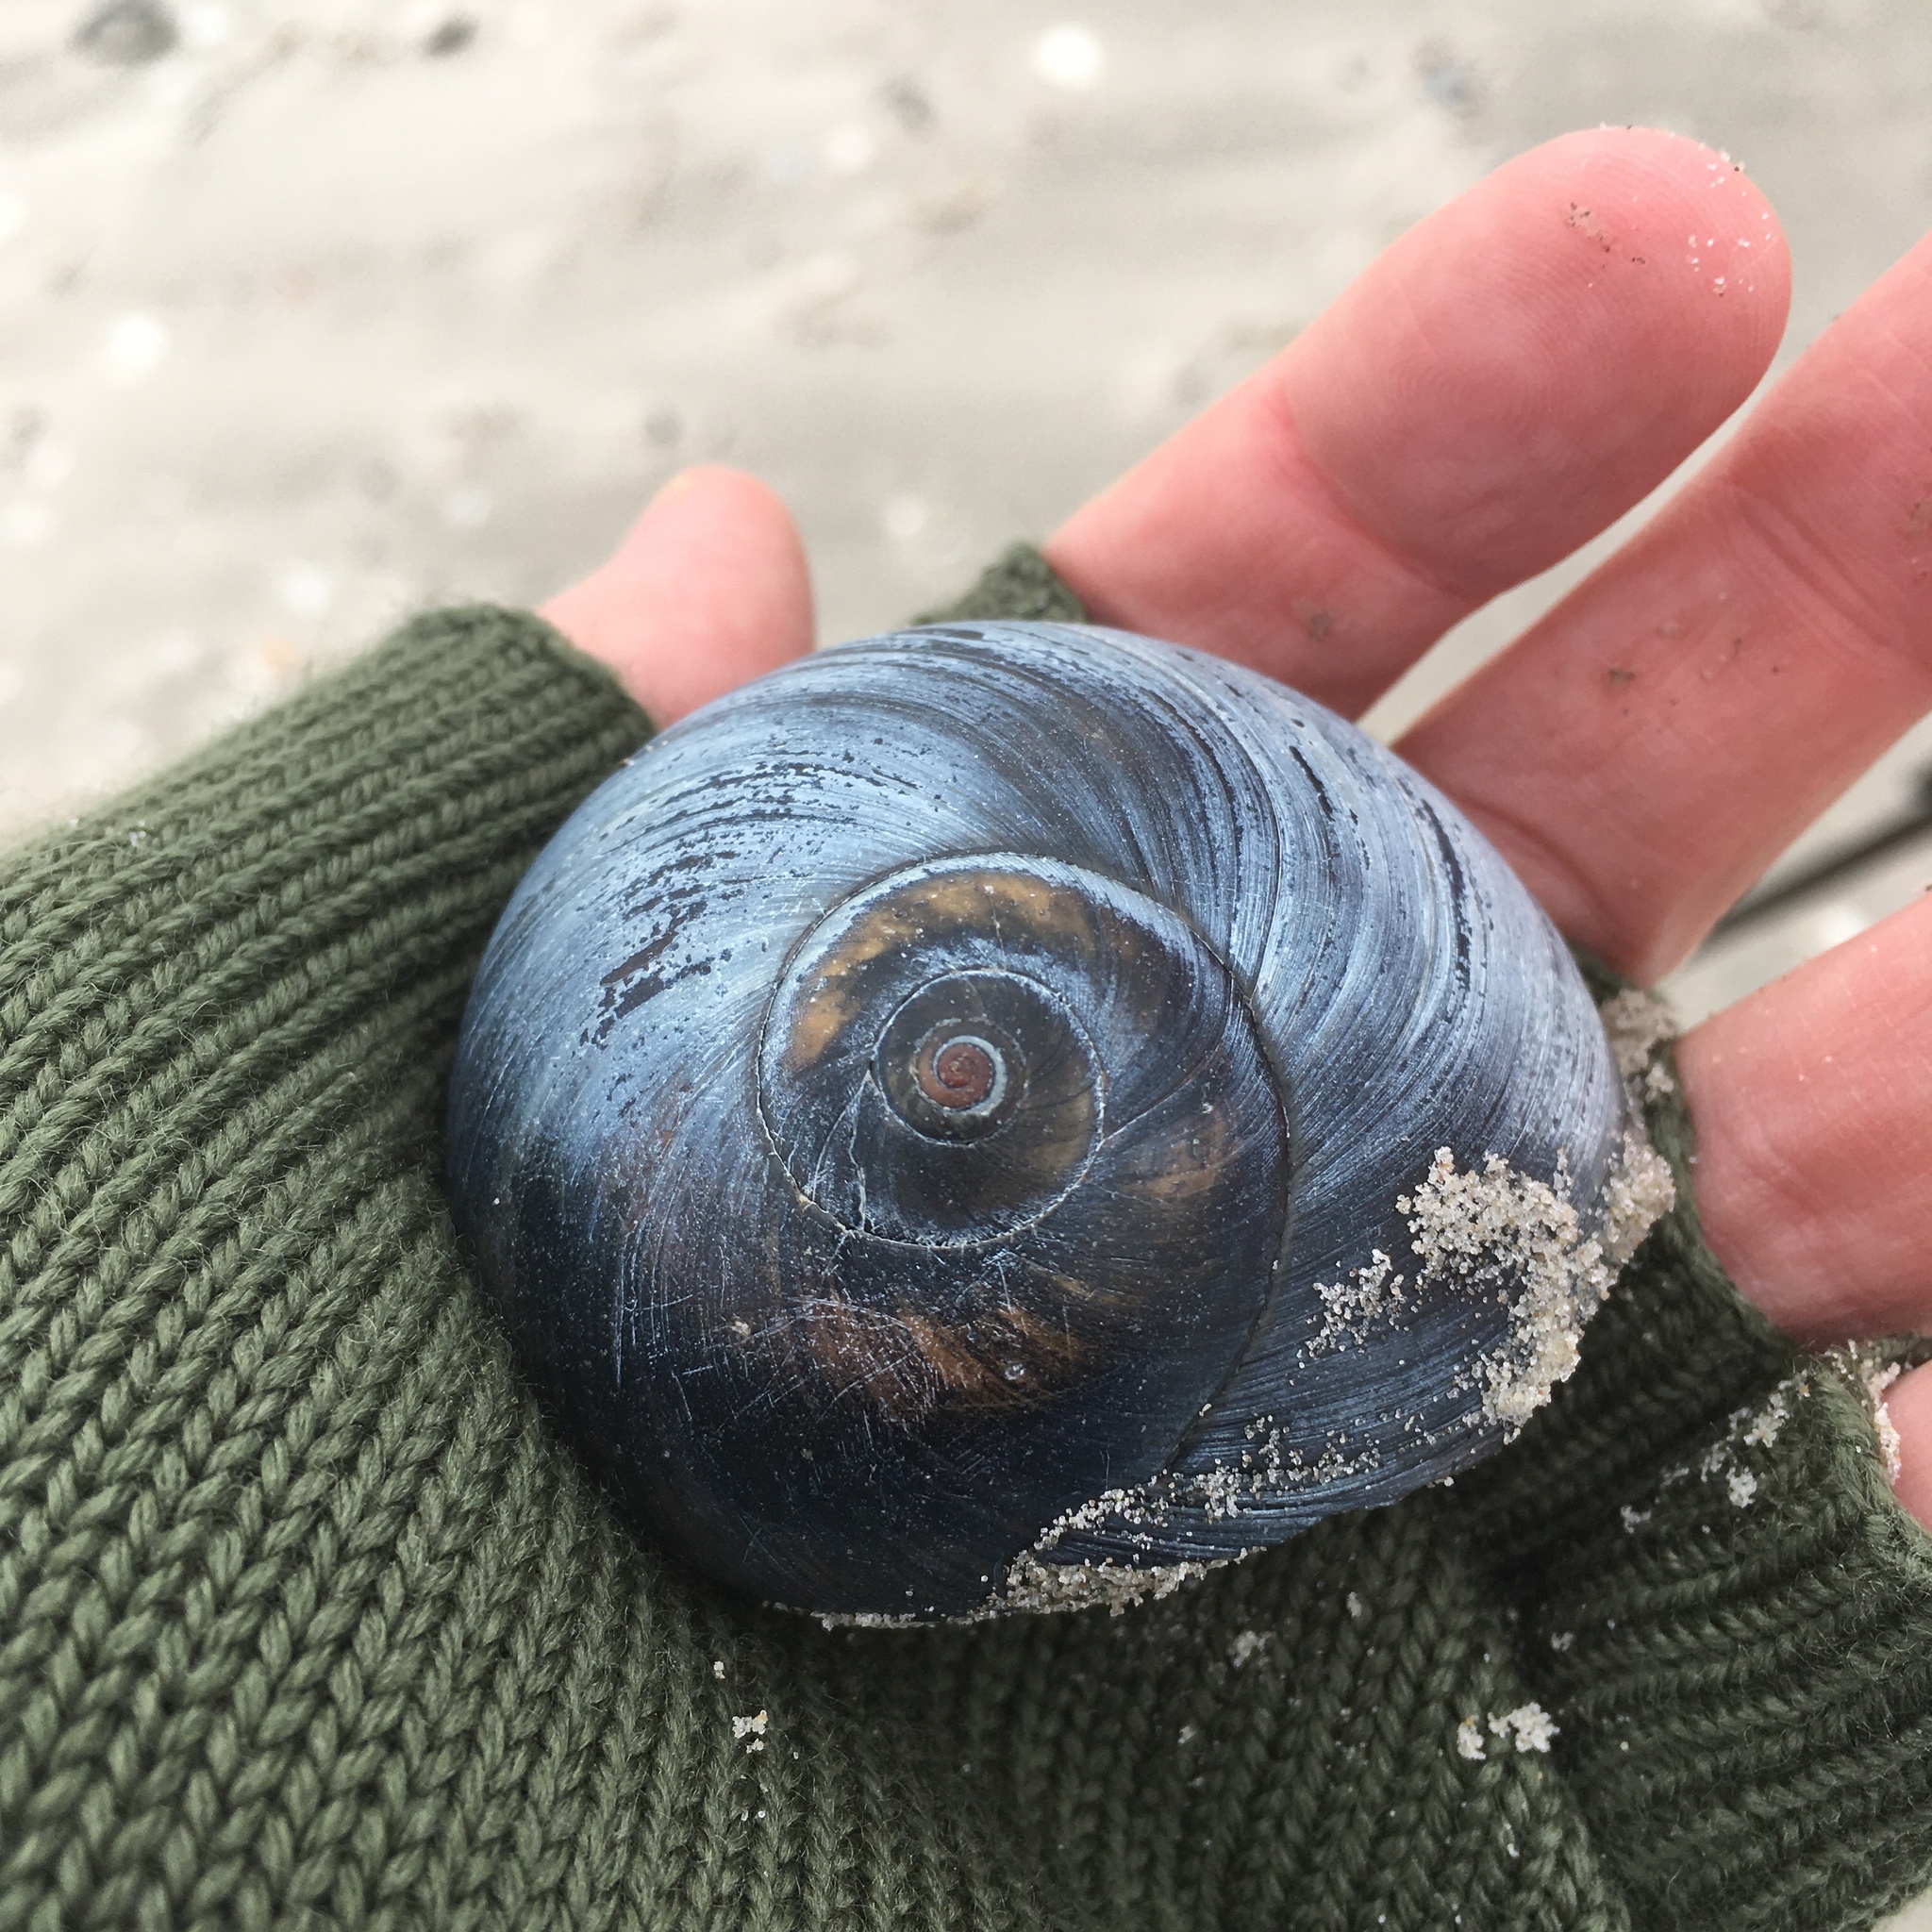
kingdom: Animalia
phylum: Mollusca
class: Gastropoda
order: Littorinimorpha
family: Naticidae
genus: Neverita
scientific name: Neverita duplicata
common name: Lobed moonsnail
